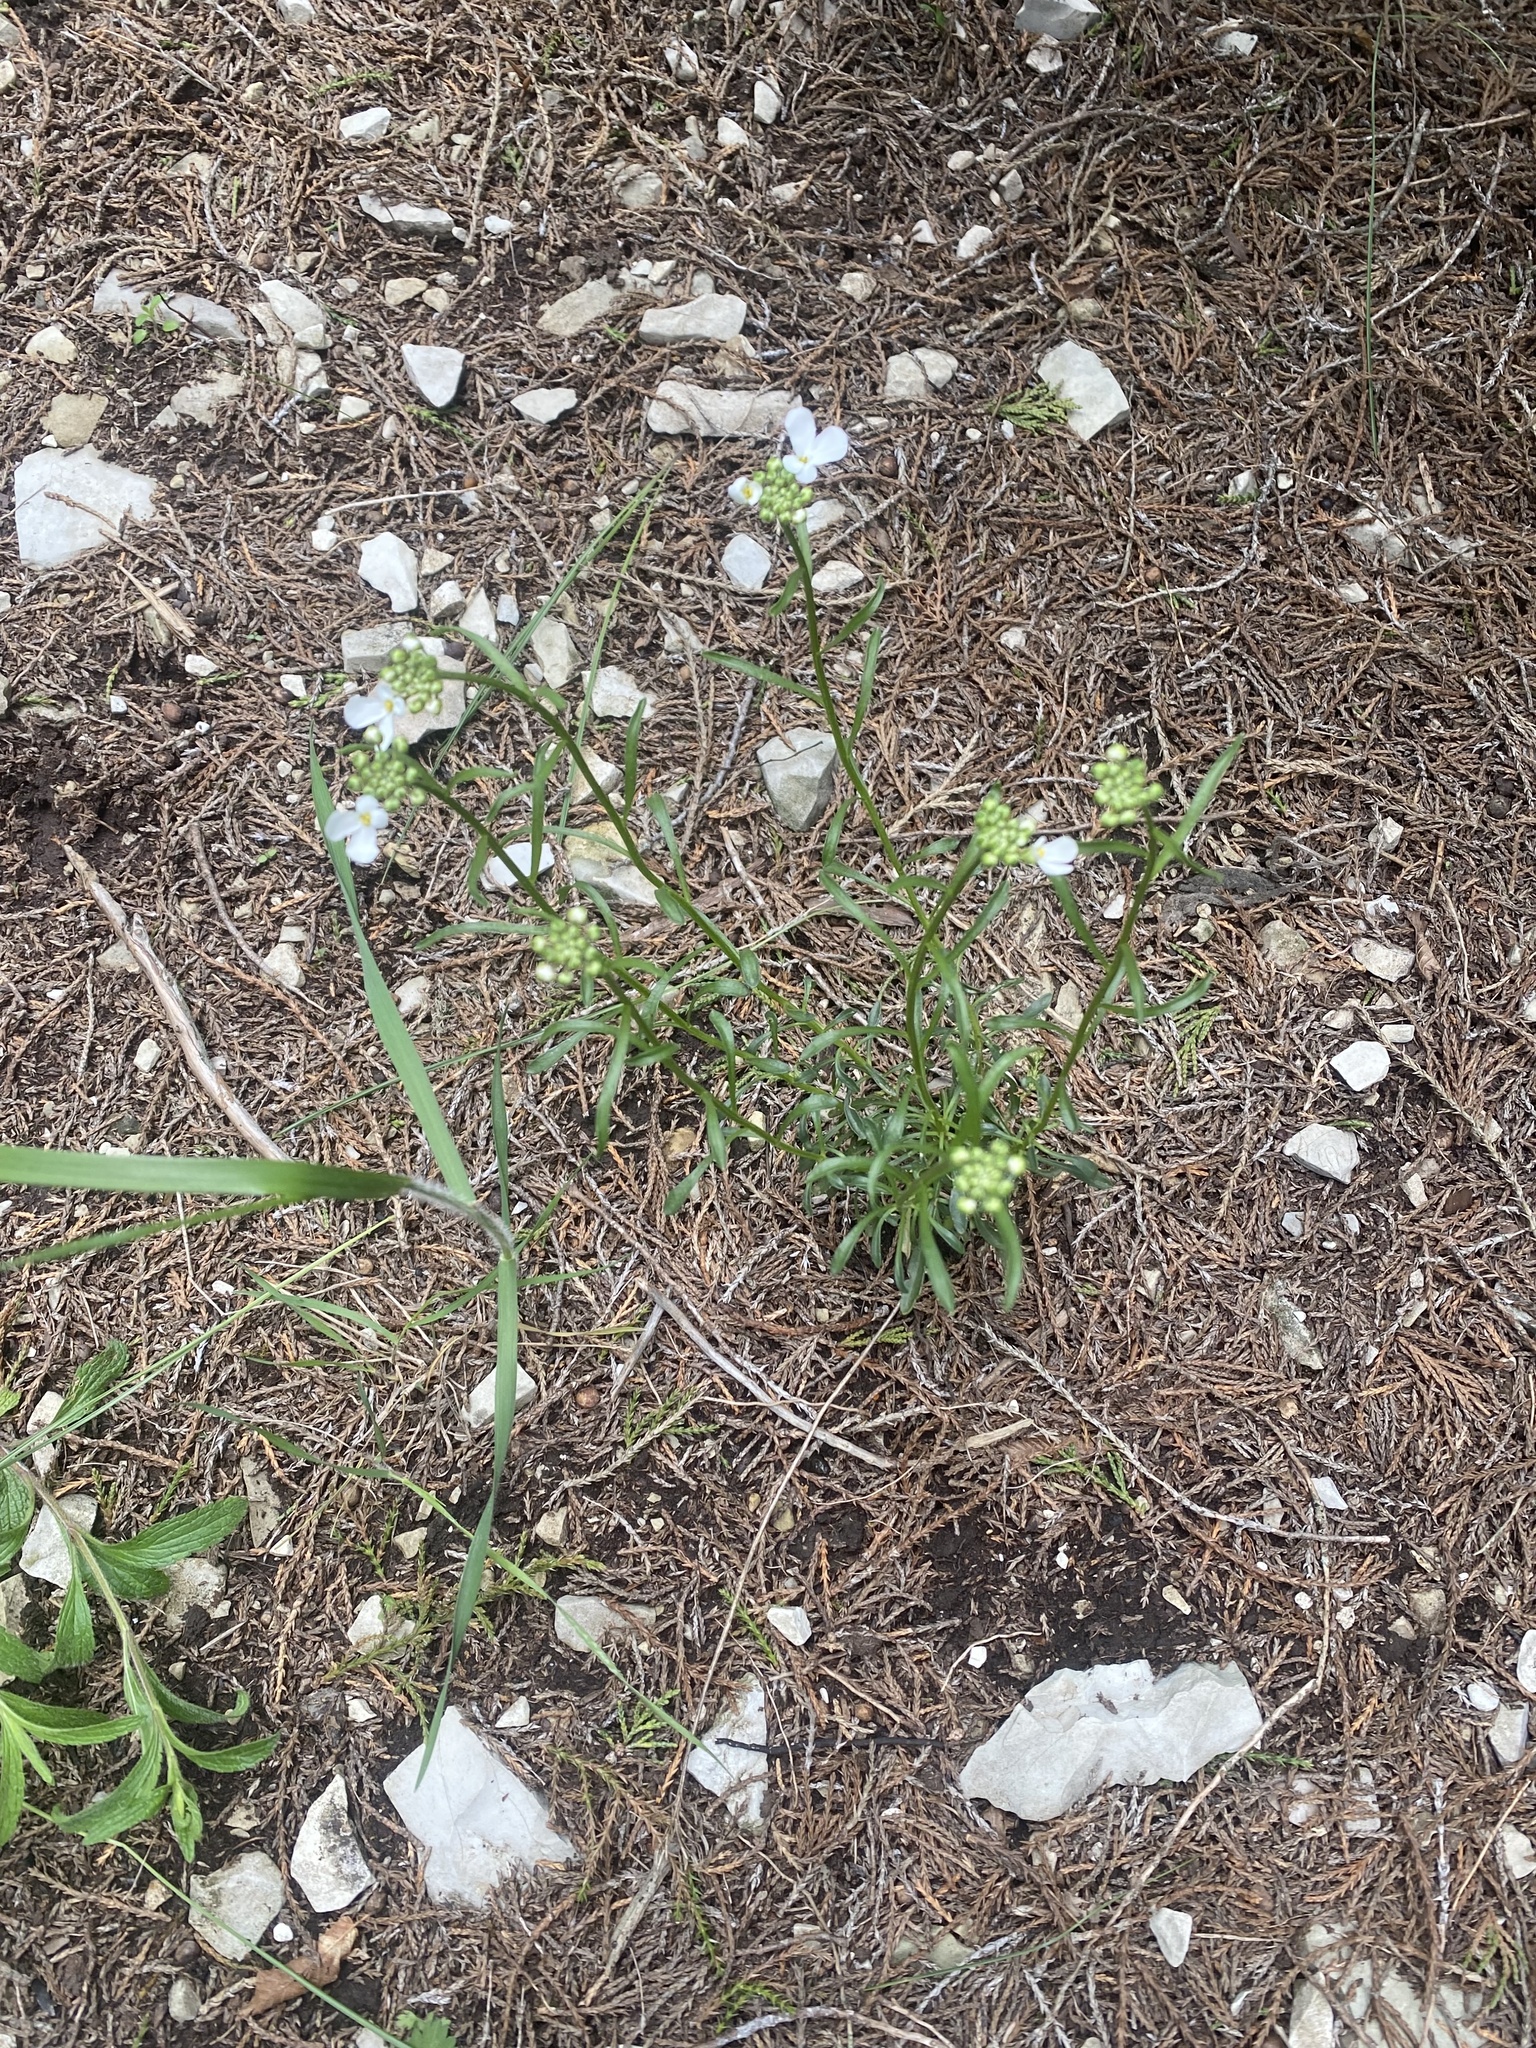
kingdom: Plantae
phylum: Tracheophyta
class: Magnoliopsida
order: Brassicales
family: Brassicaceae
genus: Iberis
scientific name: Iberis simplex
